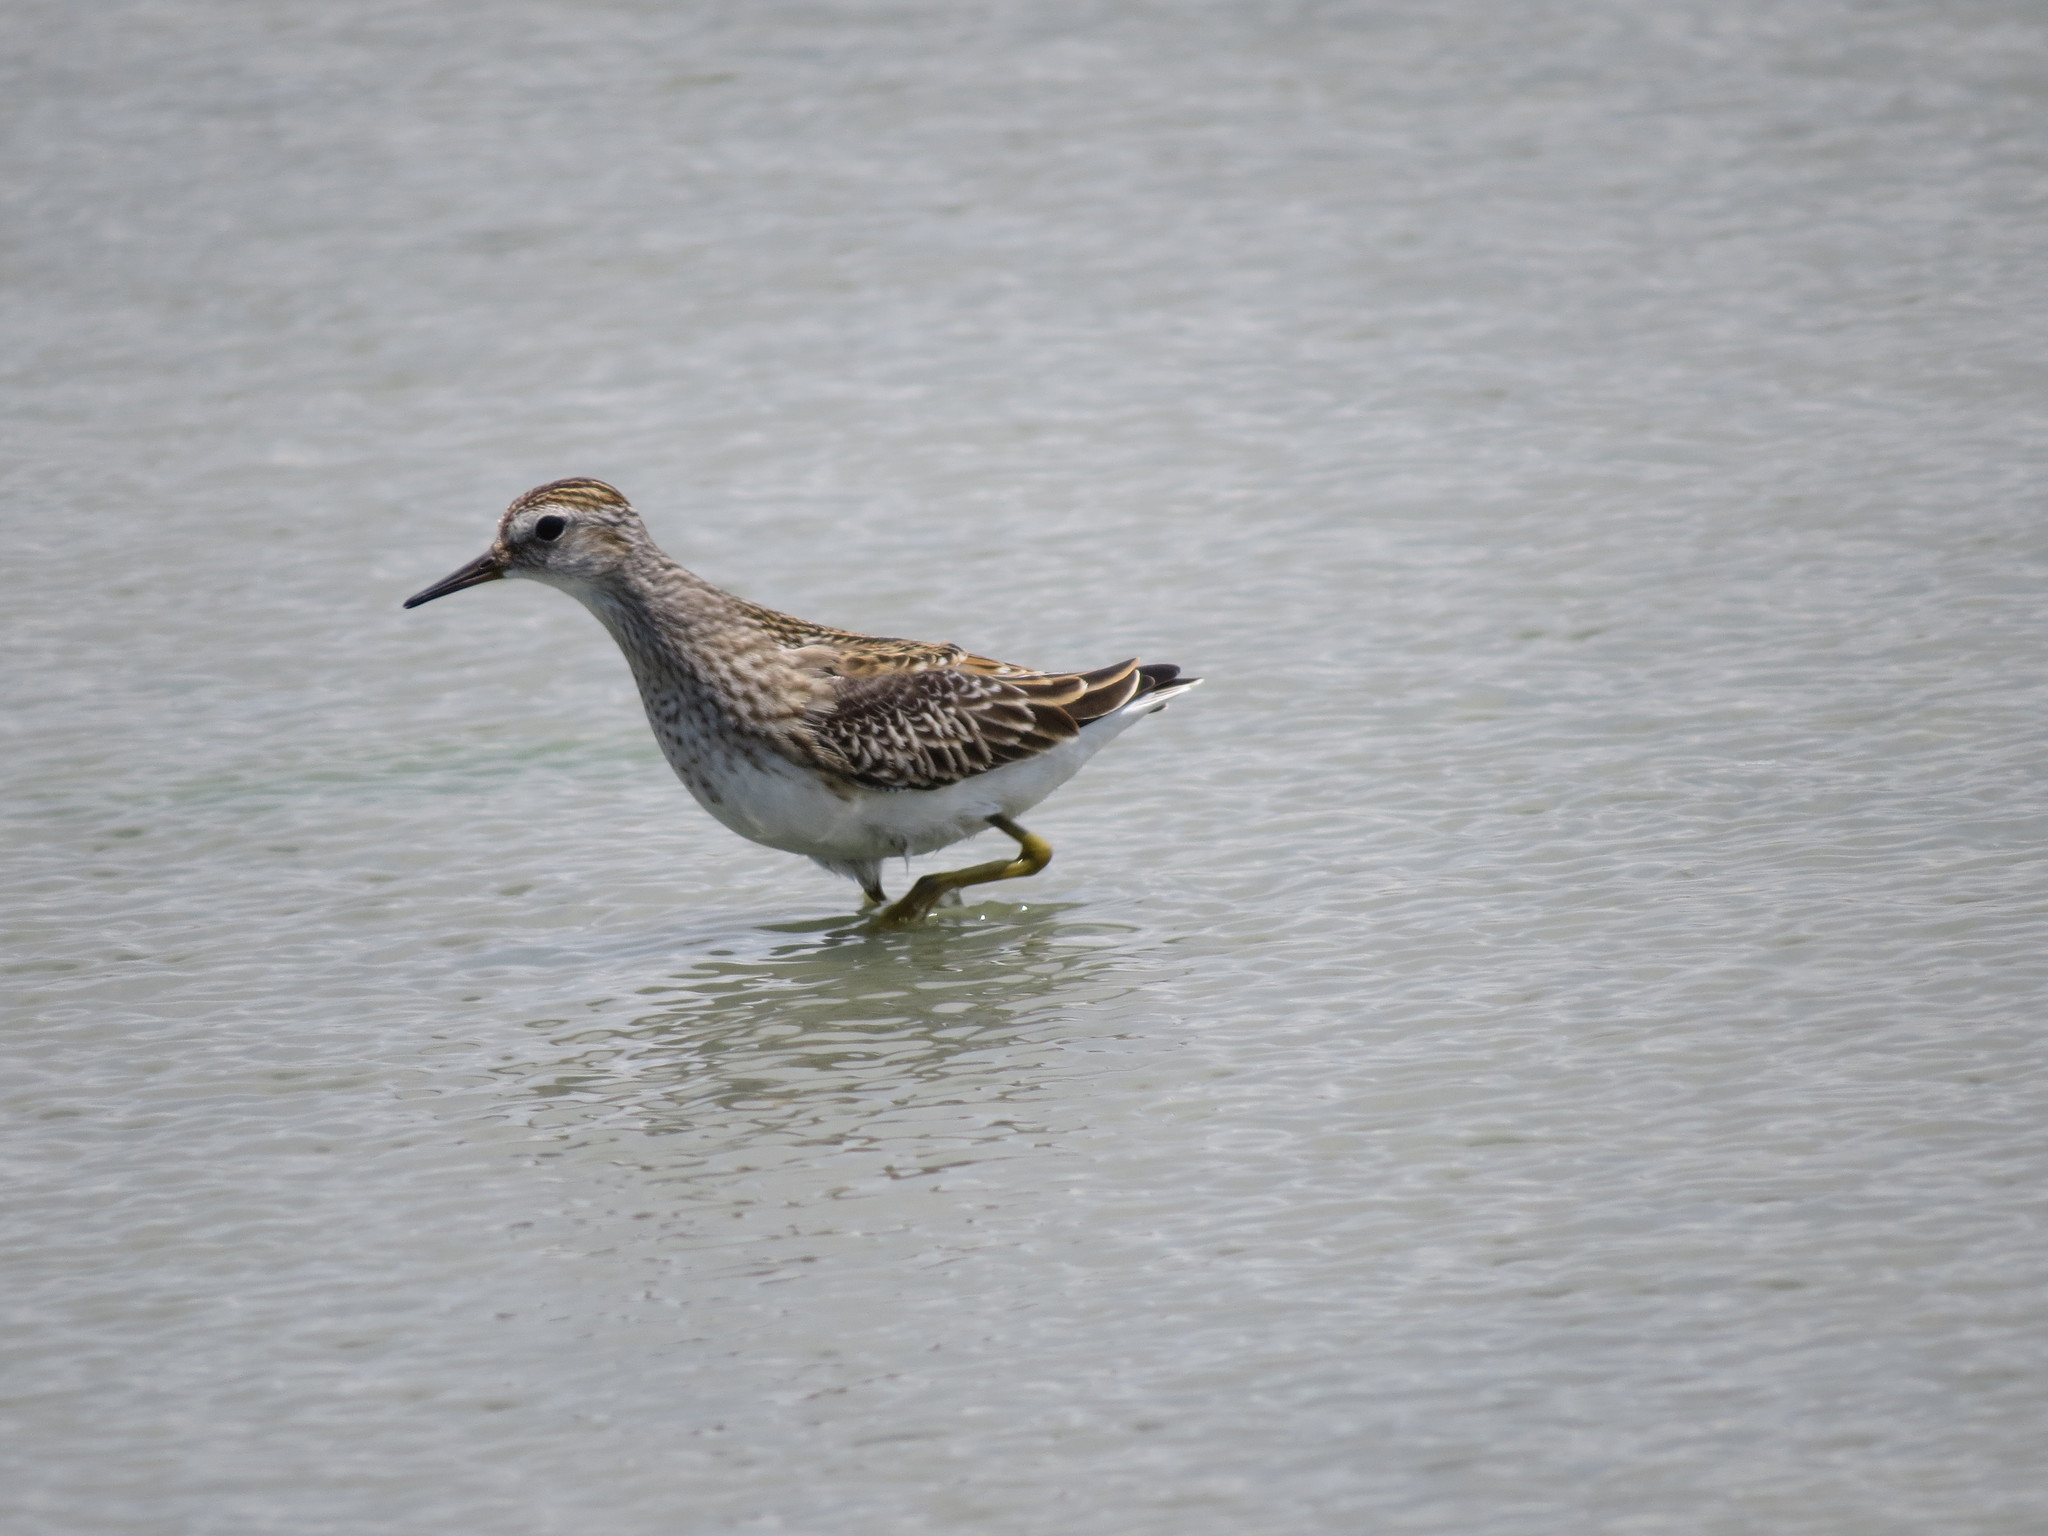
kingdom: Animalia
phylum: Chordata
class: Aves
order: Charadriiformes
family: Scolopacidae
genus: Calidris
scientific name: Calidris subminuta
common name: Long-toed stint
